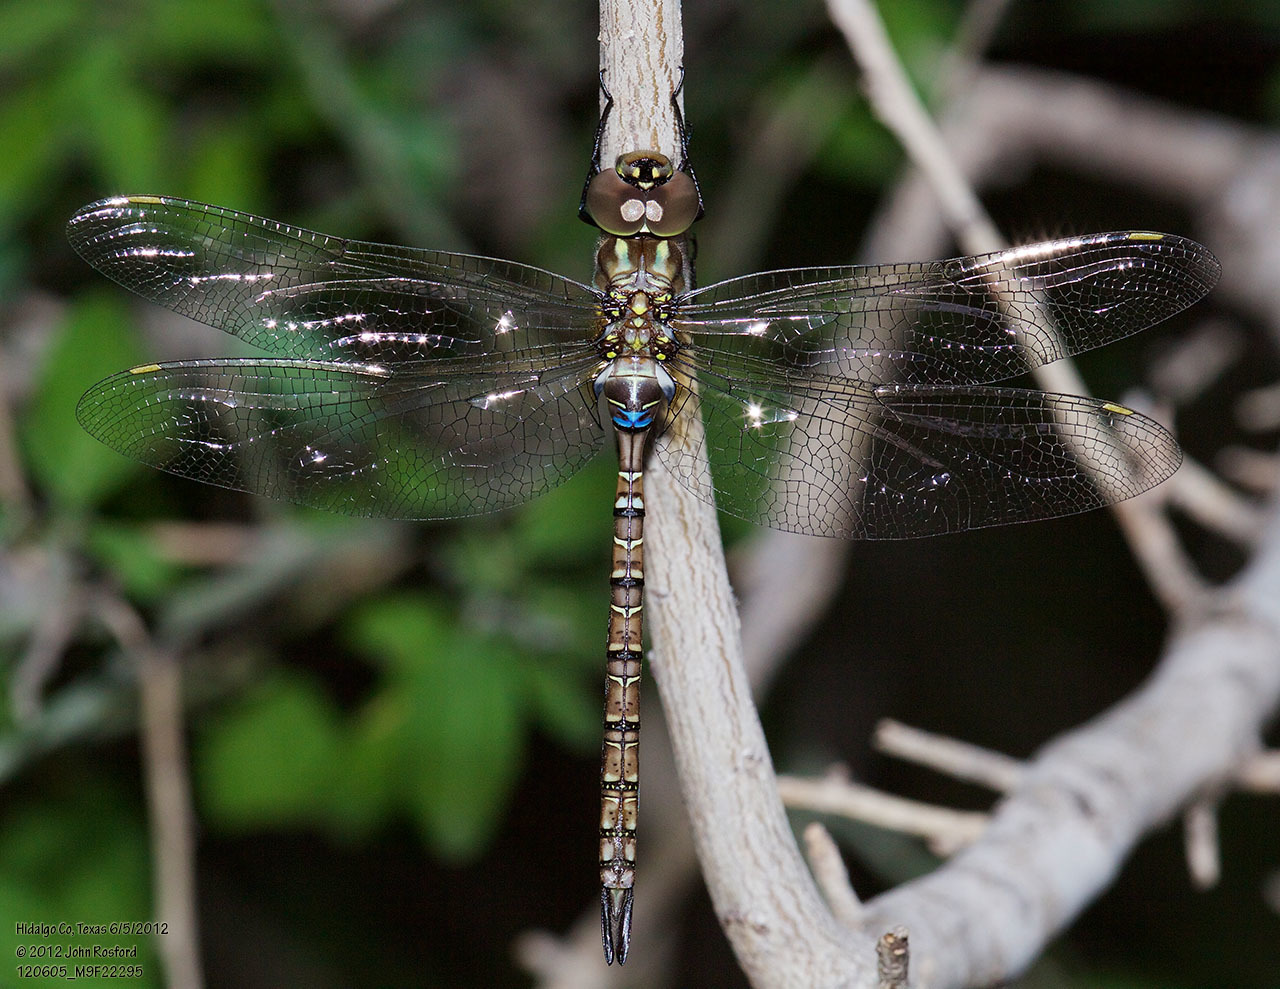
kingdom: Animalia
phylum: Arthropoda
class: Insecta
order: Odonata
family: Aeshnidae
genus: Rhionaeschna
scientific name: Rhionaeschna psilus
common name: Turquoise-tipped darner
